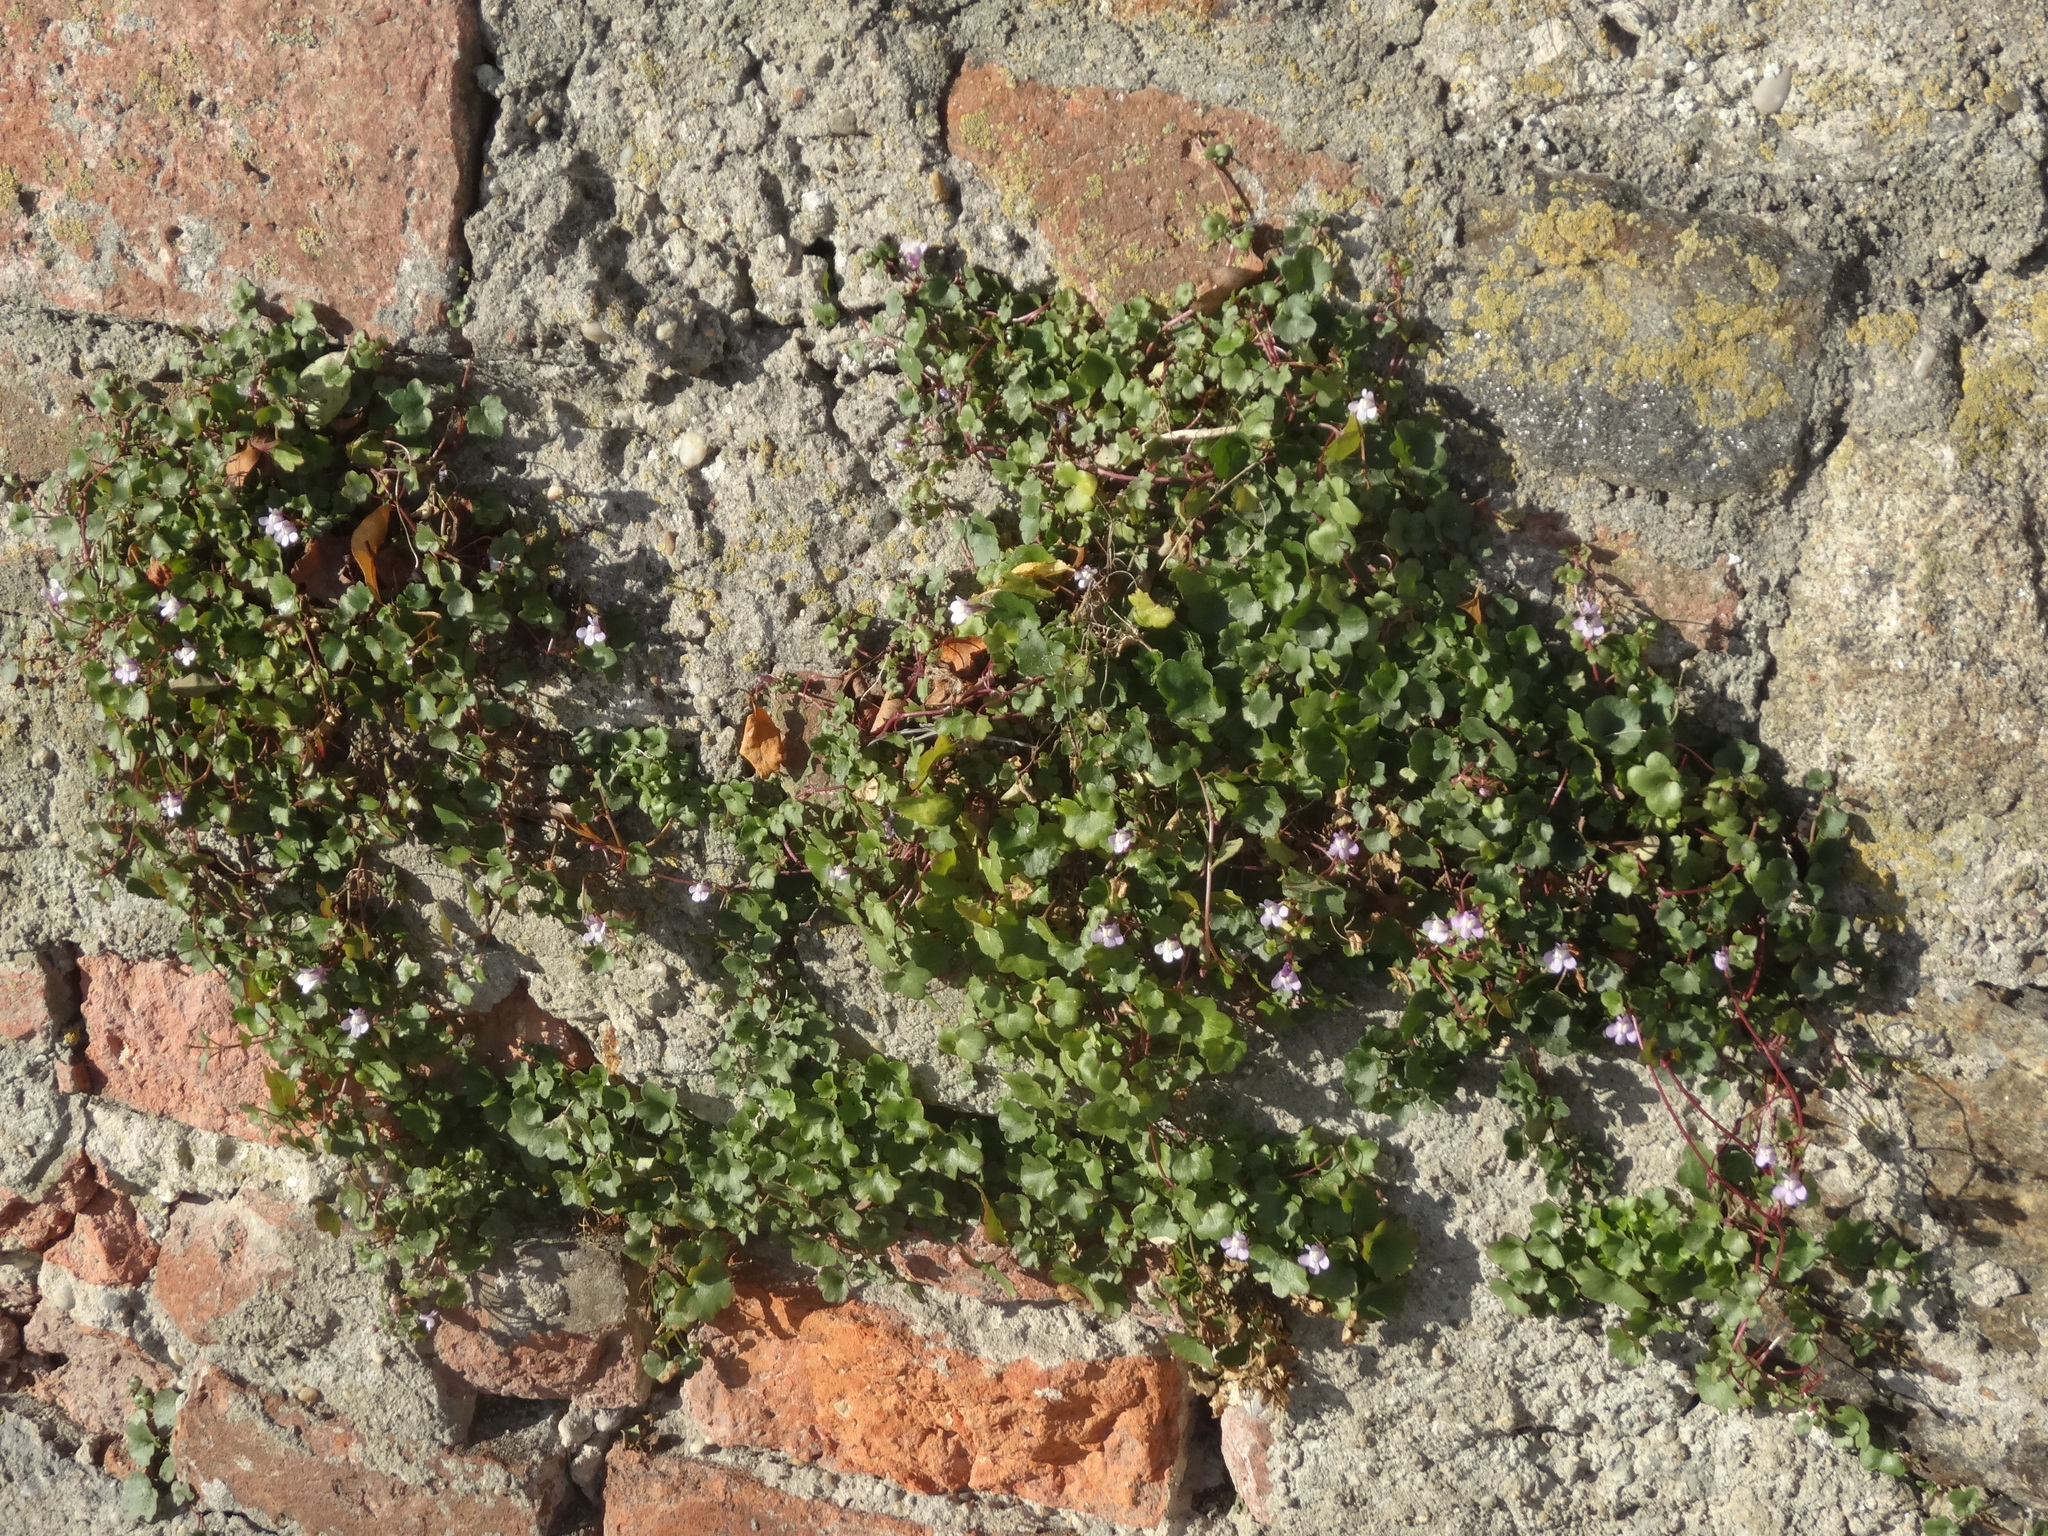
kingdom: Plantae
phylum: Tracheophyta
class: Magnoliopsida
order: Lamiales
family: Plantaginaceae
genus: Cymbalaria
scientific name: Cymbalaria muralis
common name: Ivy-leaved toadflax
